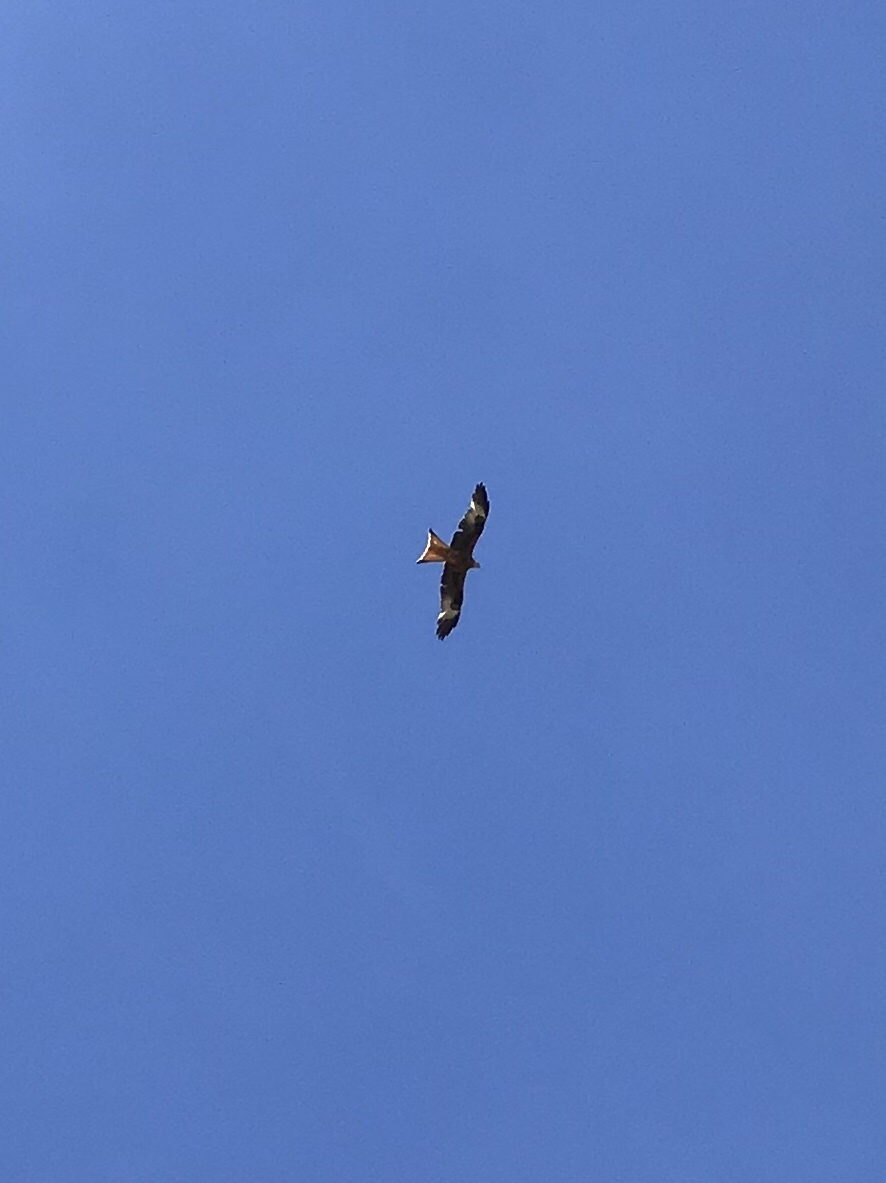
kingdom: Animalia
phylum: Chordata
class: Aves
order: Accipitriformes
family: Accipitridae
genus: Milvus
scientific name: Milvus milvus
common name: Red kite
